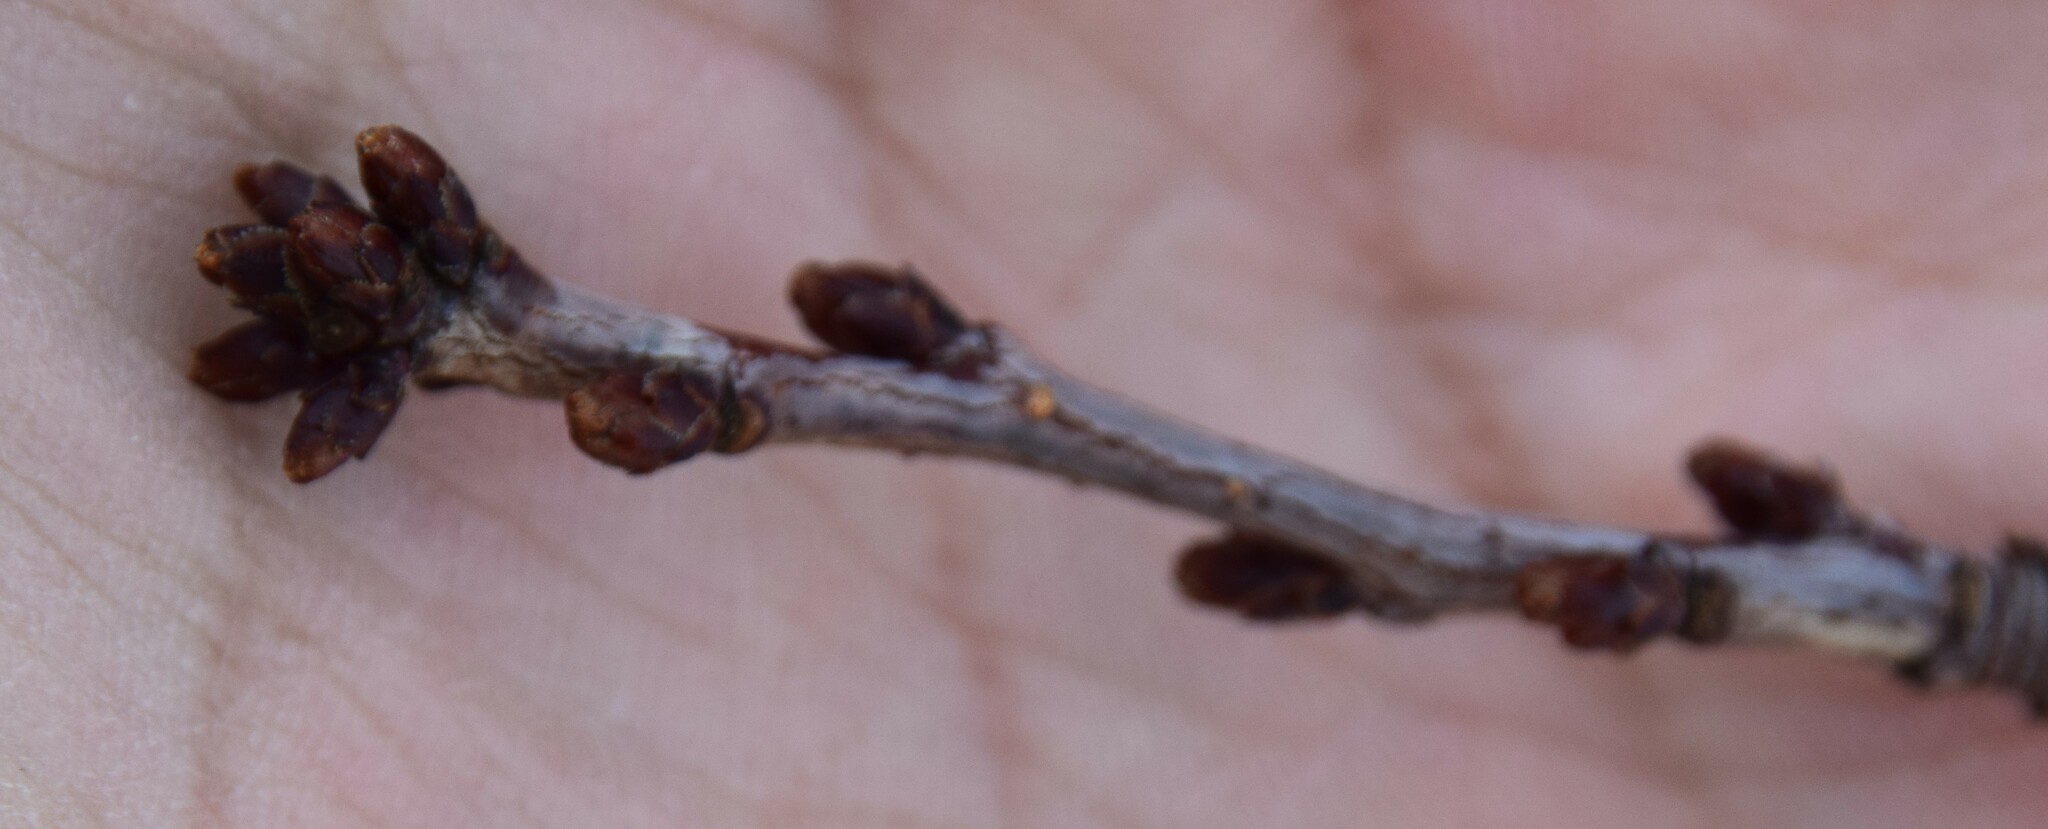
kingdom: Plantae
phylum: Tracheophyta
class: Magnoliopsida
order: Rosales
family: Rosaceae
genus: Prunus
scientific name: Prunus pensylvanica
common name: Pin cherry
